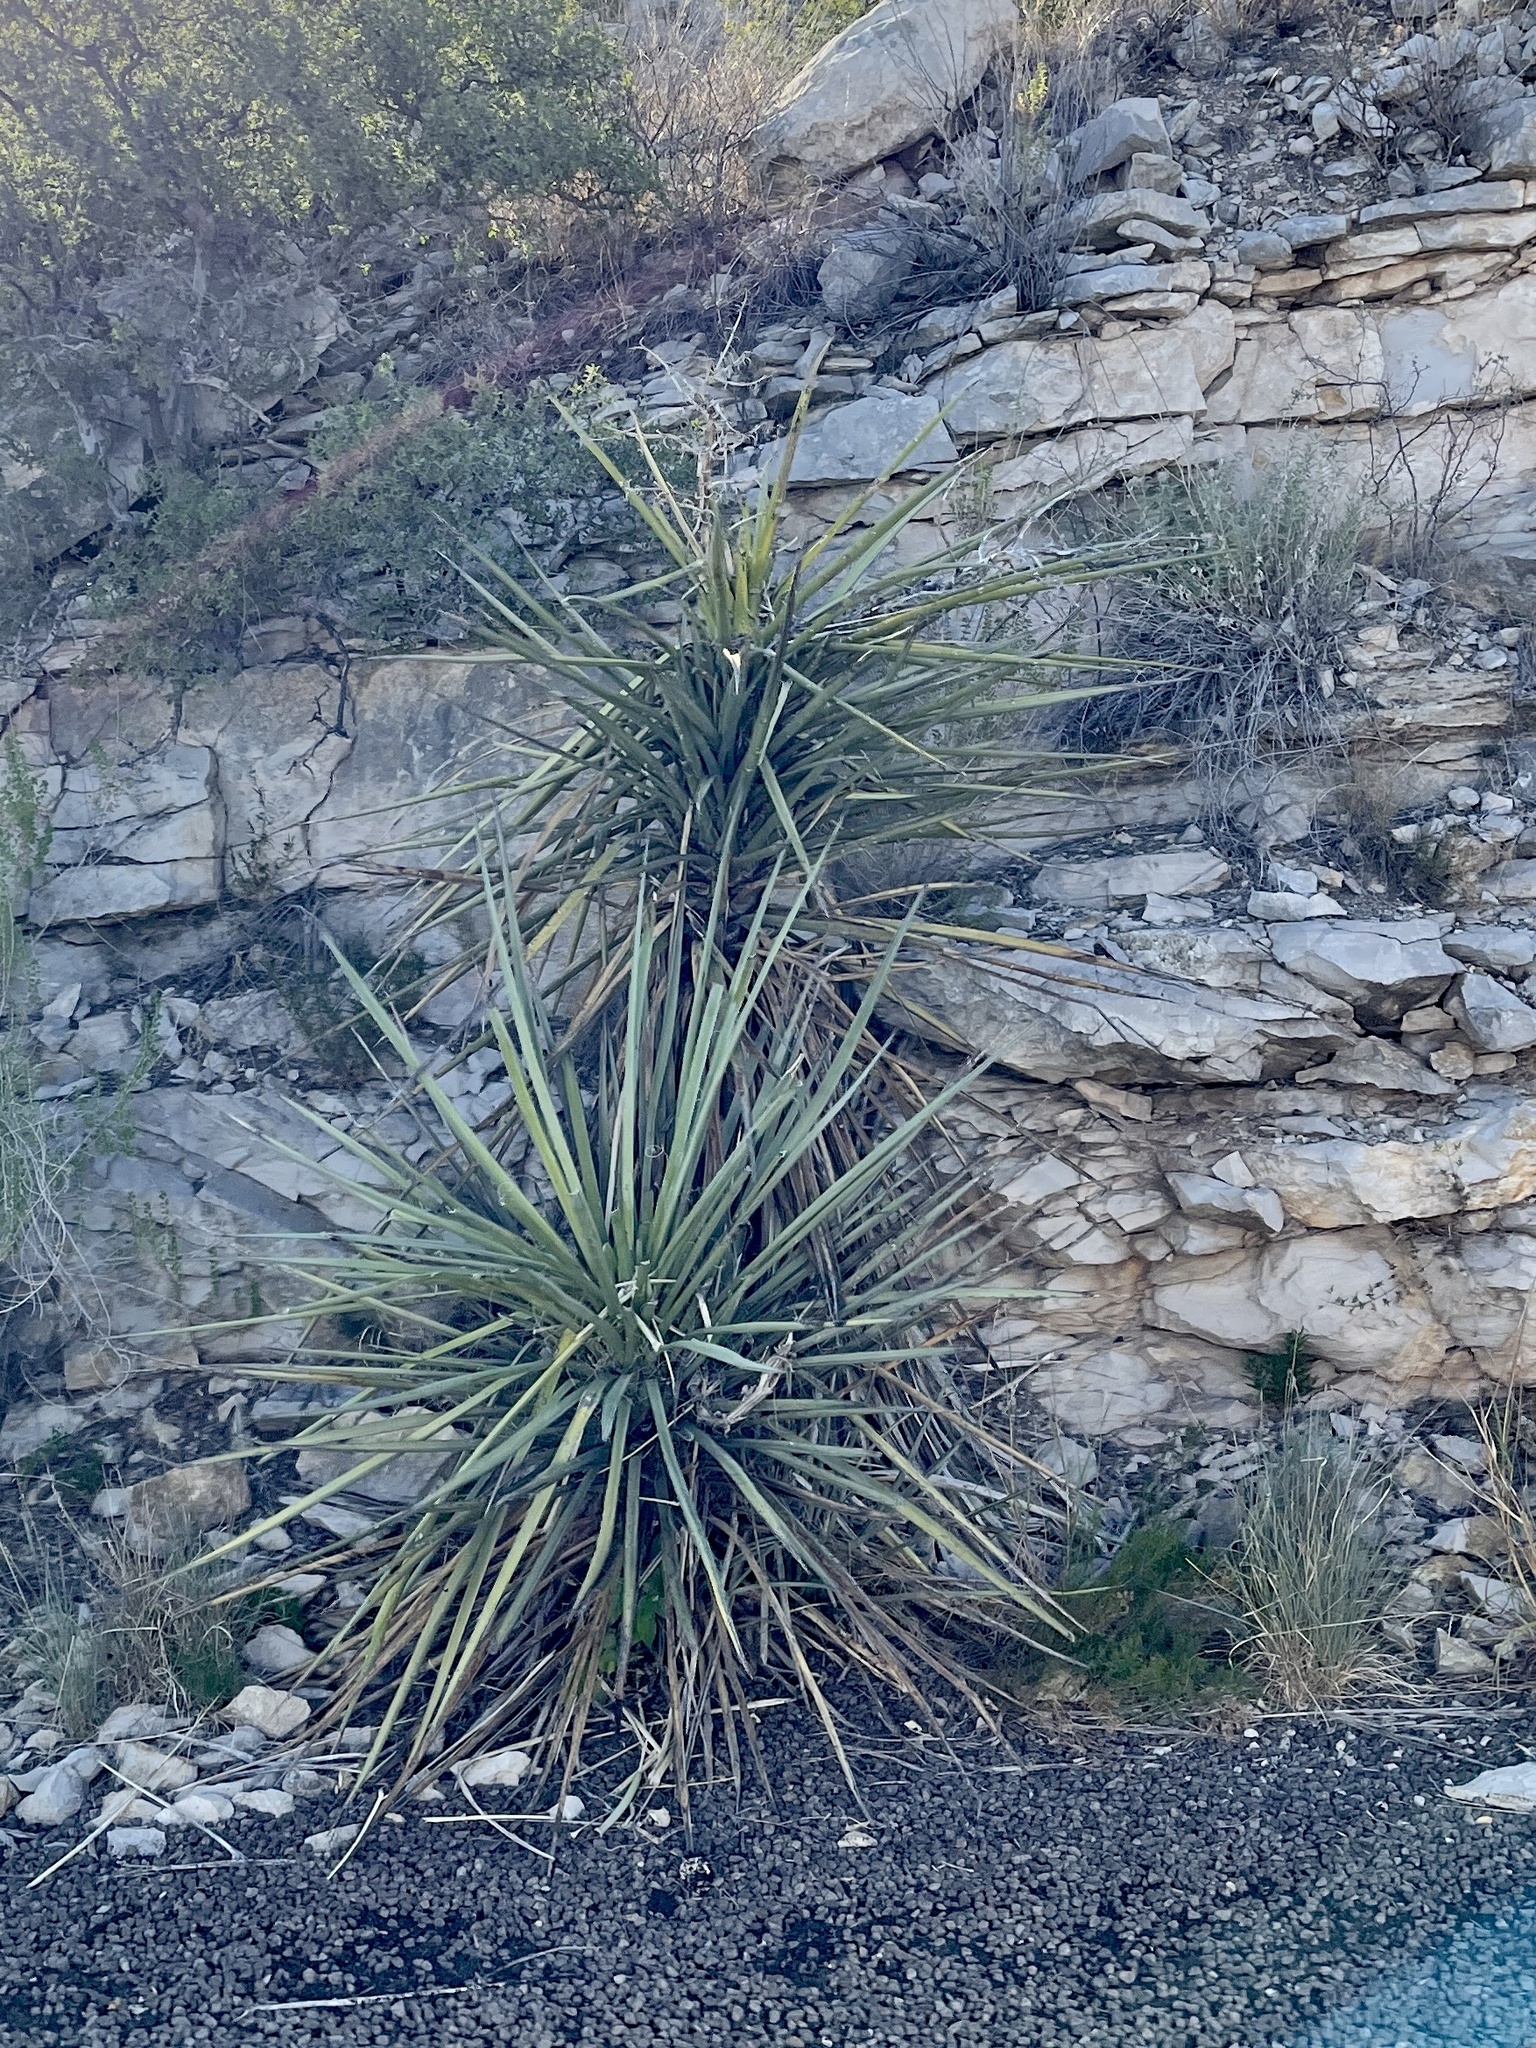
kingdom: Plantae
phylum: Tracheophyta
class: Liliopsida
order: Asparagales
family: Asparagaceae
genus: Yucca
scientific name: Yucca treculiana
